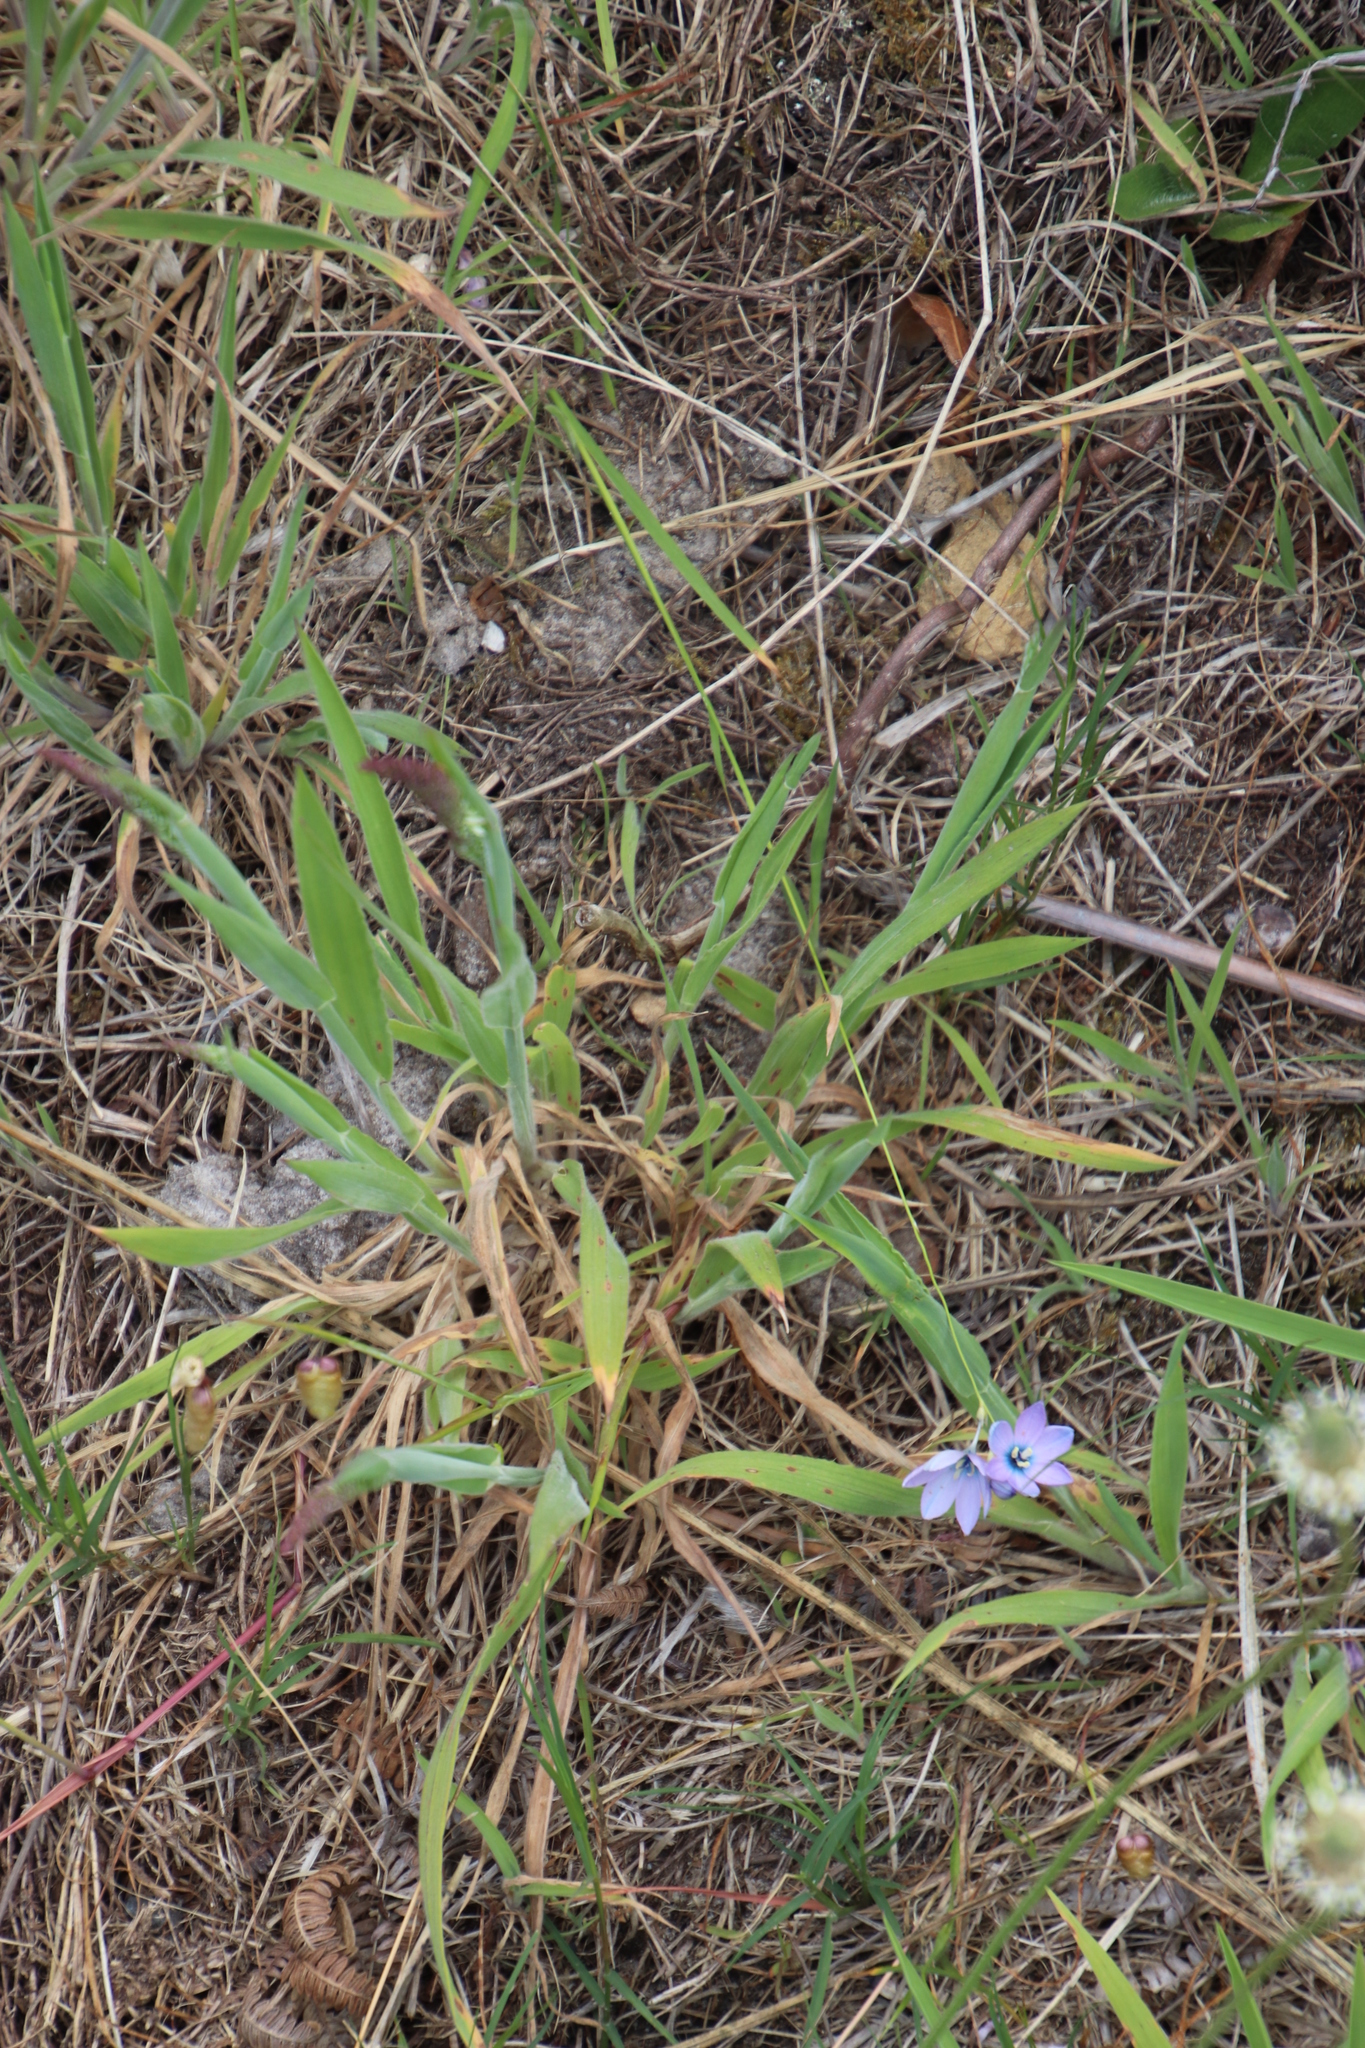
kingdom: Plantae
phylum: Tracheophyta
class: Liliopsida
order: Asparagales
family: Iridaceae
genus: Ixia
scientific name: Ixia polystachya
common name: White-and-yellow-flower cornlily
